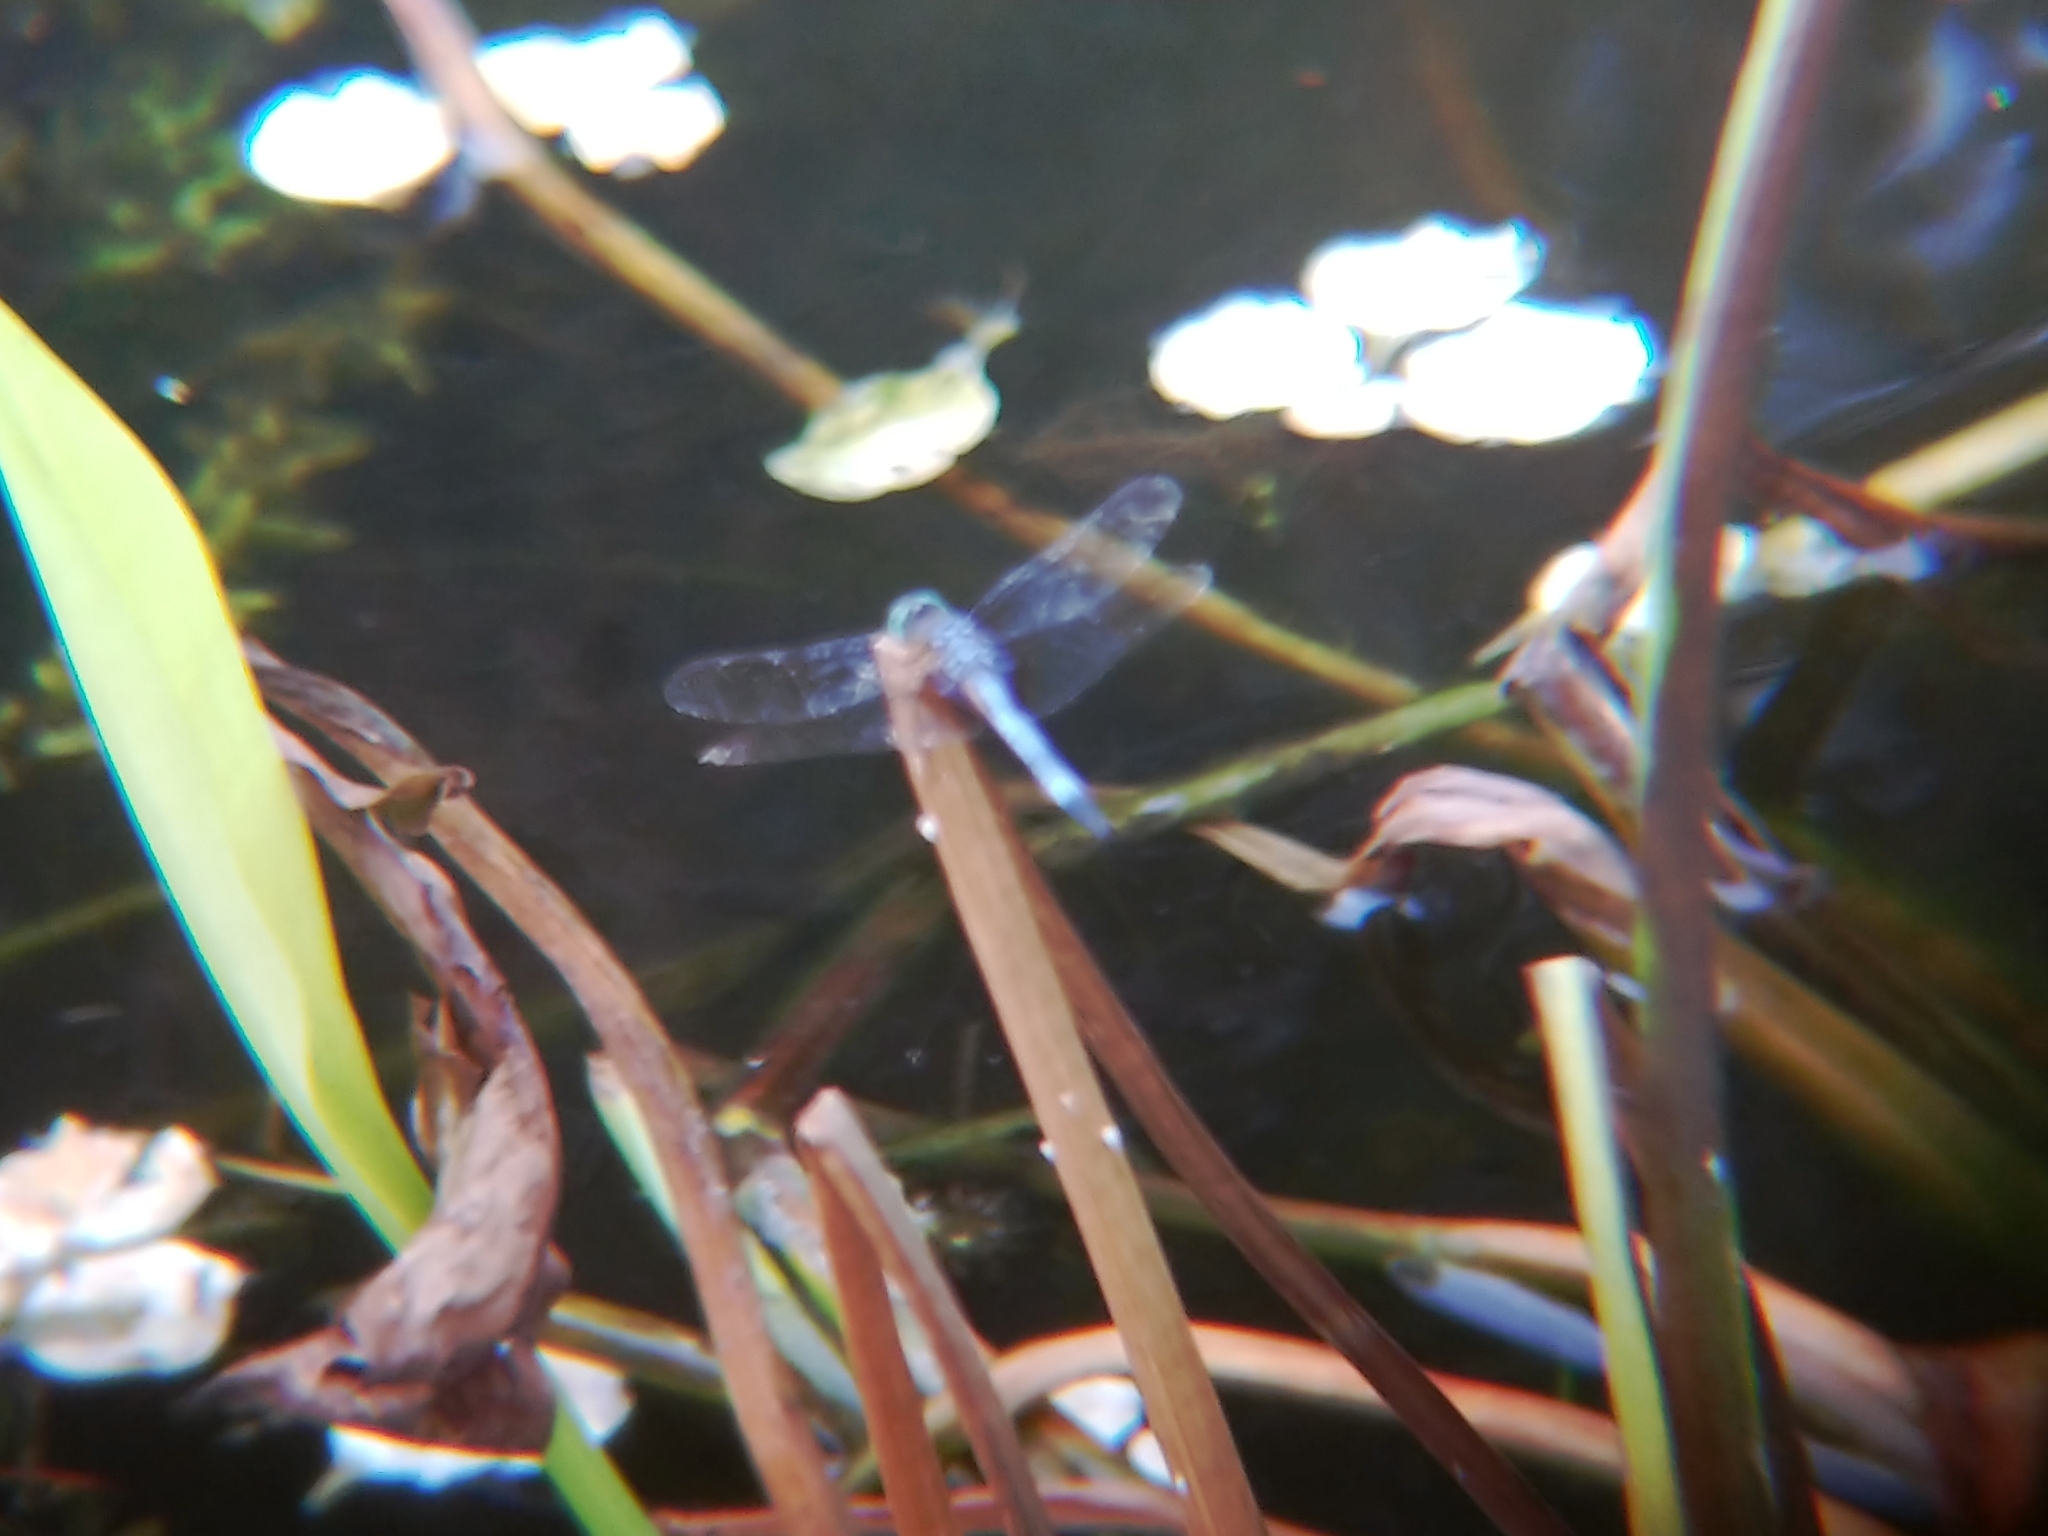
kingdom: Animalia
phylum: Arthropoda
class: Insecta
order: Odonata
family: Libellulidae
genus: Pachydiplax
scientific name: Pachydiplax longipennis
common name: Blue dasher
